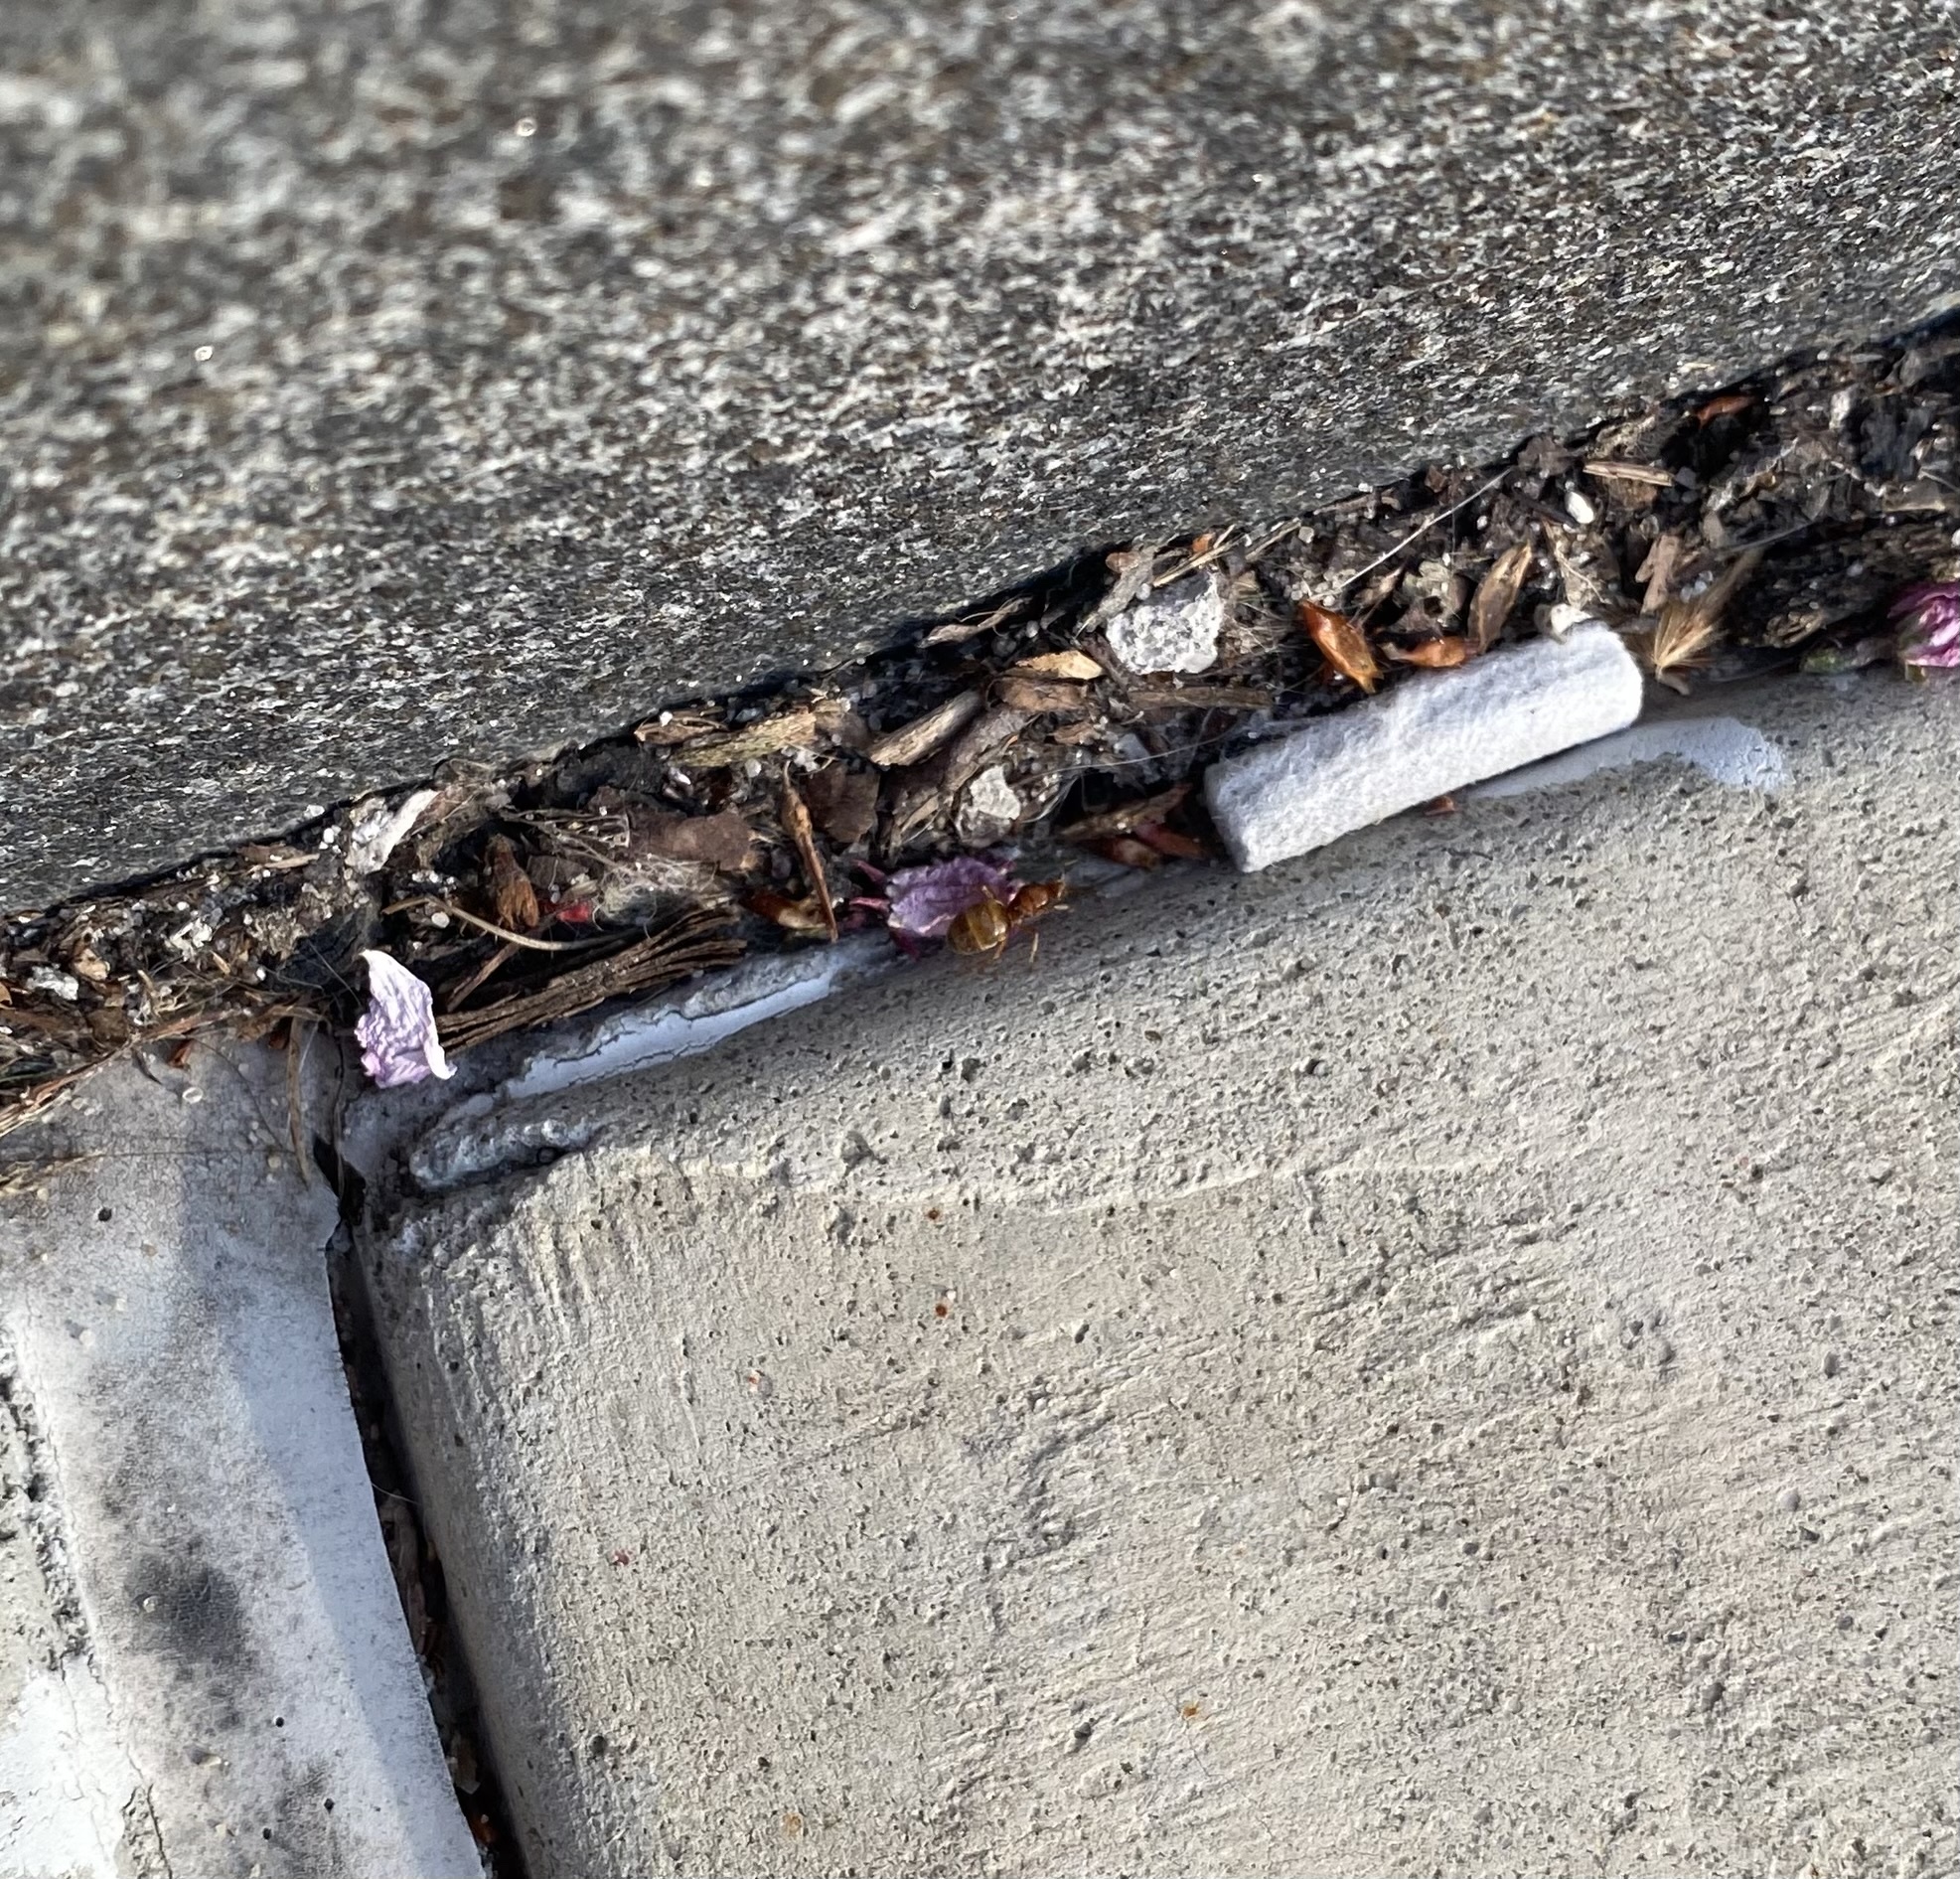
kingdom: Animalia
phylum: Arthropoda
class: Insecta
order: Hymenoptera
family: Formicidae
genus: Prenolepis
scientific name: Prenolepis imparis
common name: Small honey ant
